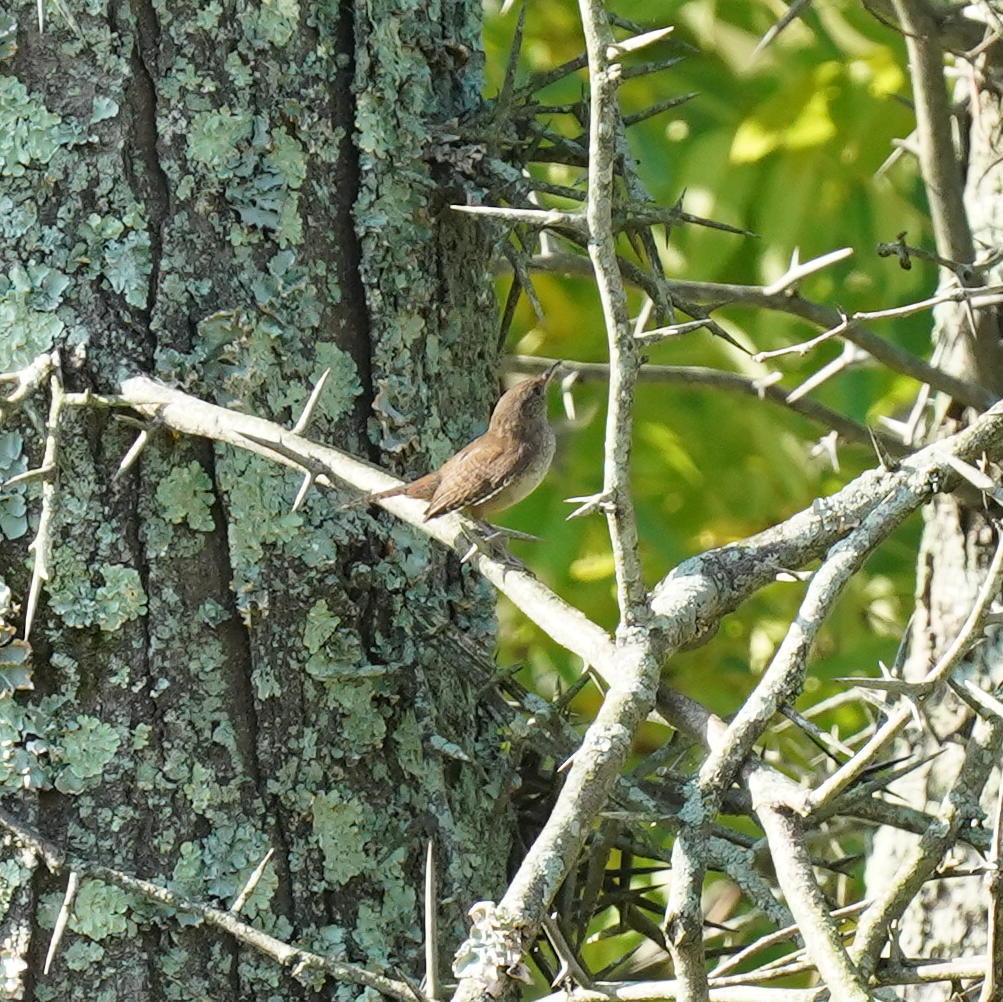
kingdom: Animalia
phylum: Chordata
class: Aves
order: Passeriformes
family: Troglodytidae
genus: Troglodytes
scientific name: Troglodytes aedon
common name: House wren
